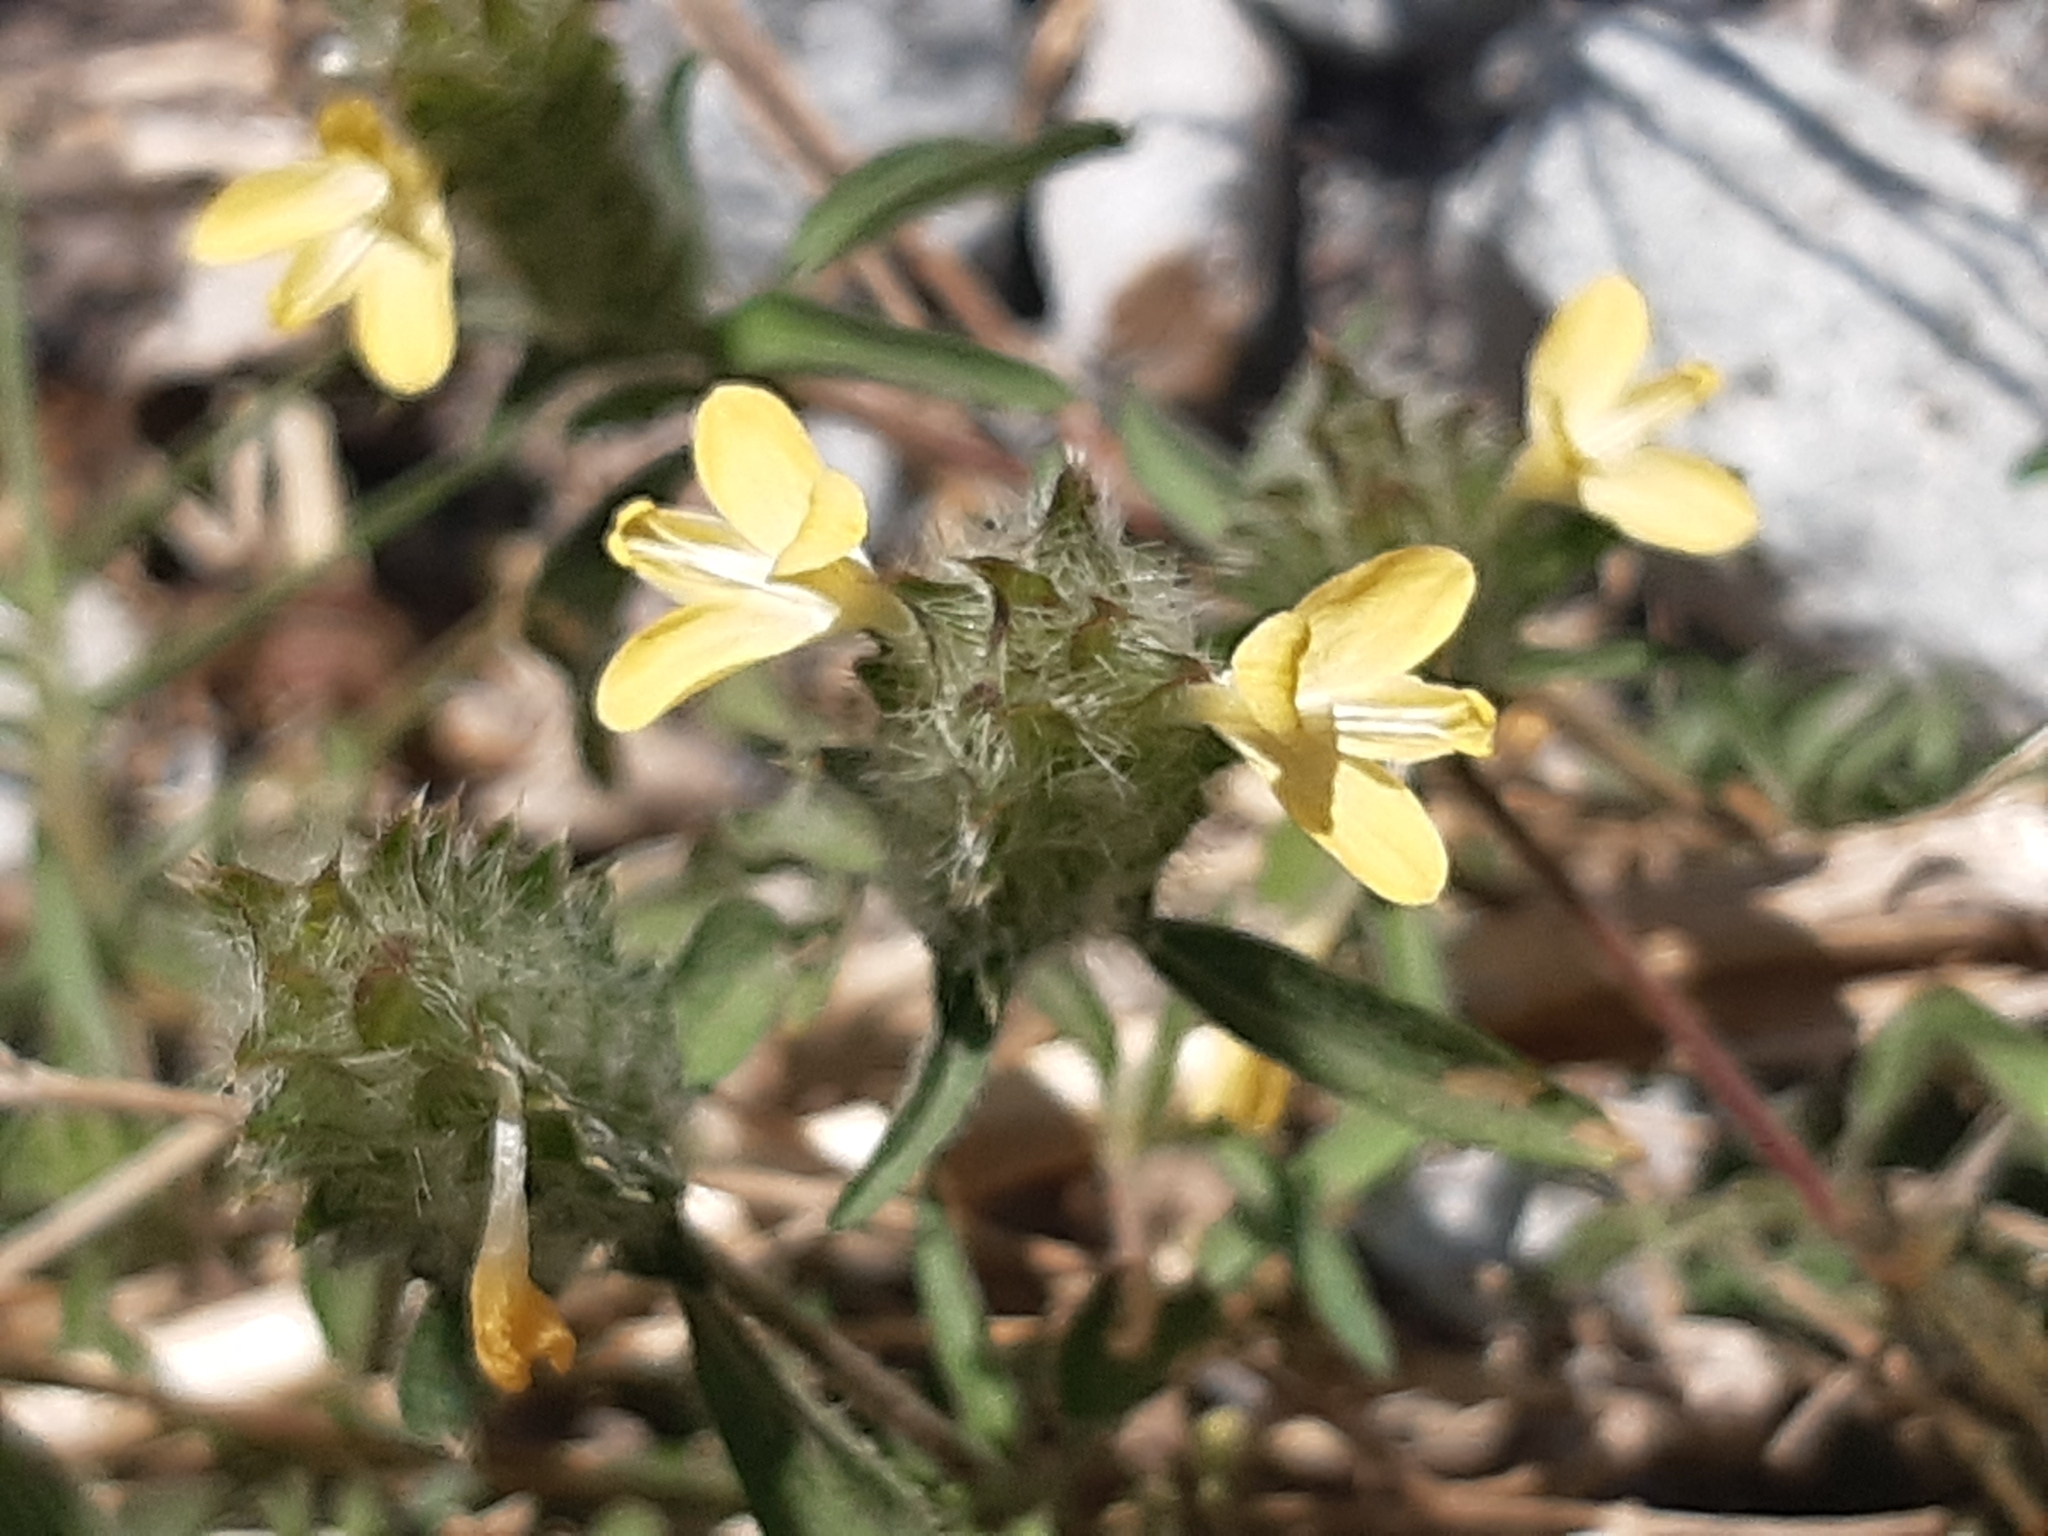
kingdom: Plantae
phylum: Tracheophyta
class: Magnoliopsida
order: Lamiales
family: Acanthaceae
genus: Tetramerium
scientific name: Tetramerium nervosum
